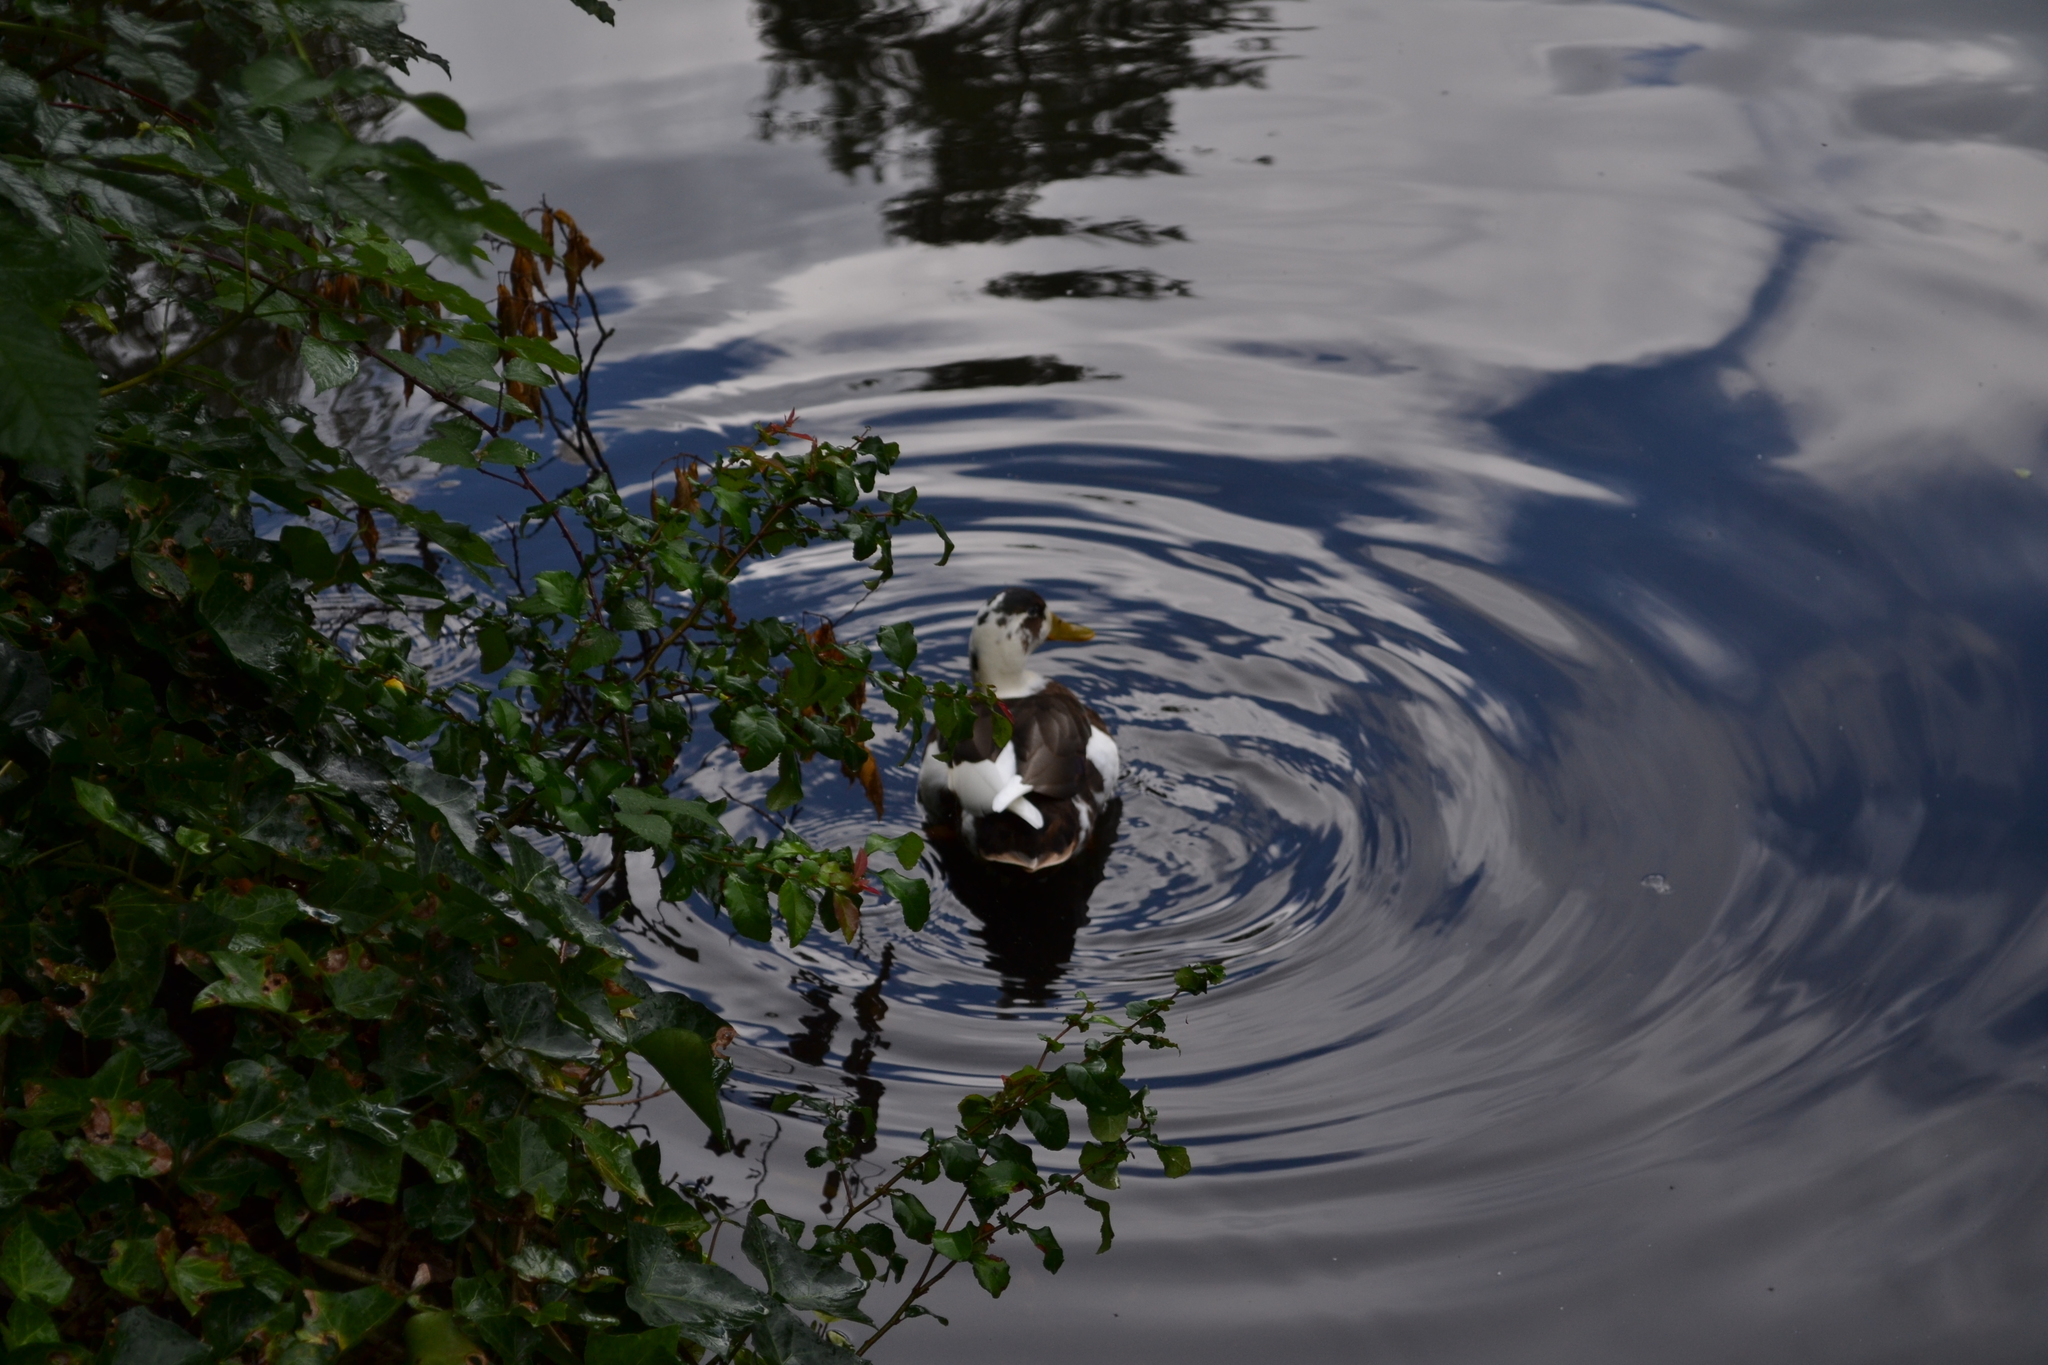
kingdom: Animalia
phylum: Chordata
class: Aves
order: Anseriformes
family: Anatidae
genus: Anas
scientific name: Anas platyrhynchos
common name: Mallard
